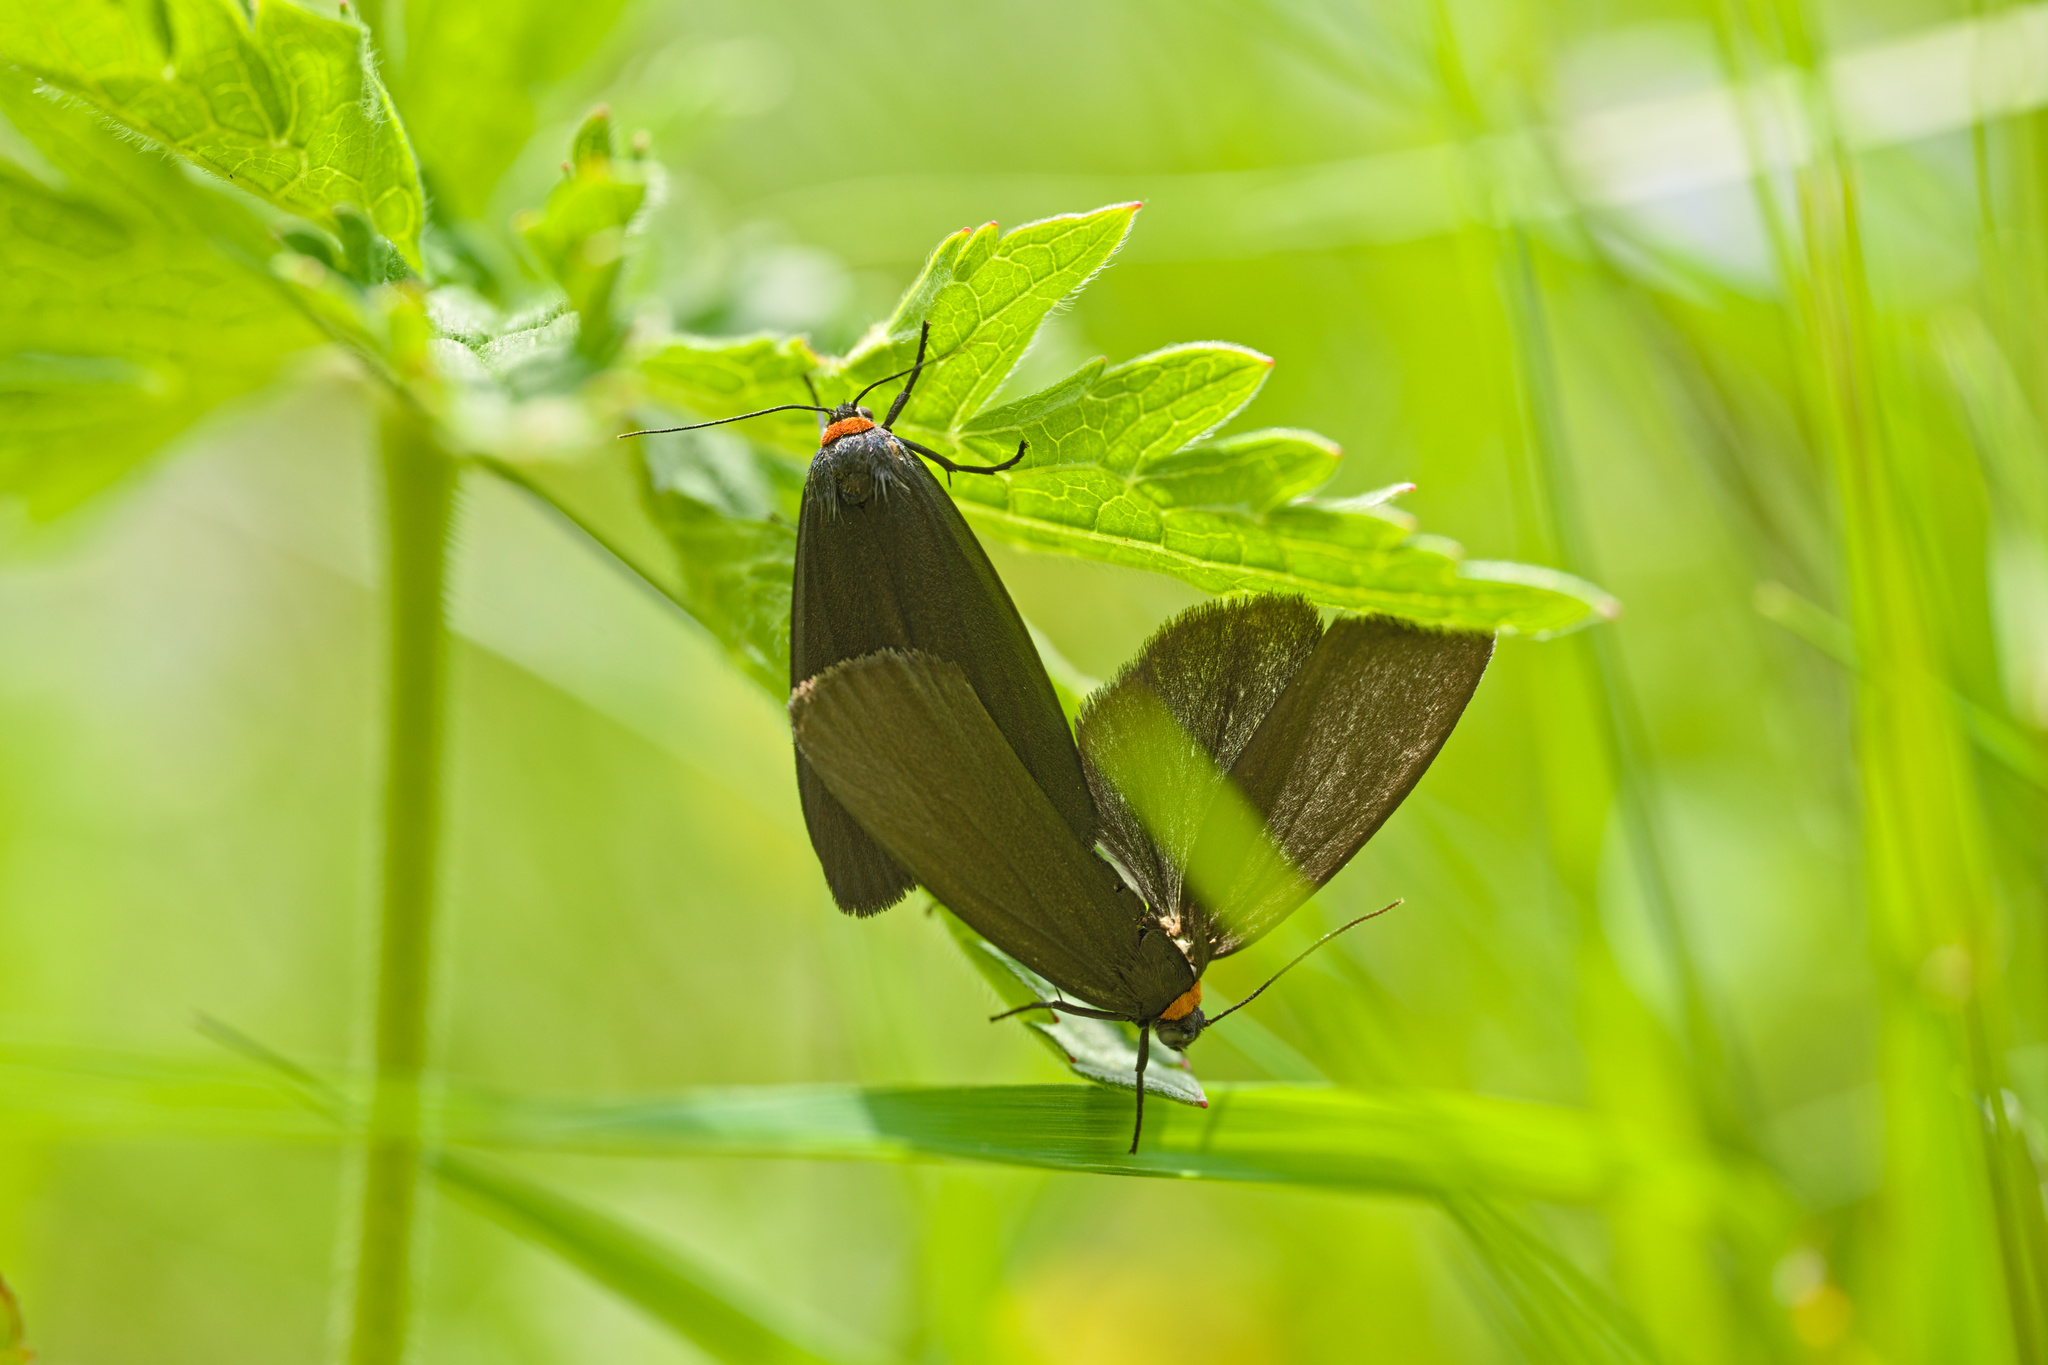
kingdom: Animalia
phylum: Arthropoda
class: Insecta
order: Lepidoptera
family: Erebidae
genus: Atolmis
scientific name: Atolmis rubricollis
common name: Red-necked footman
